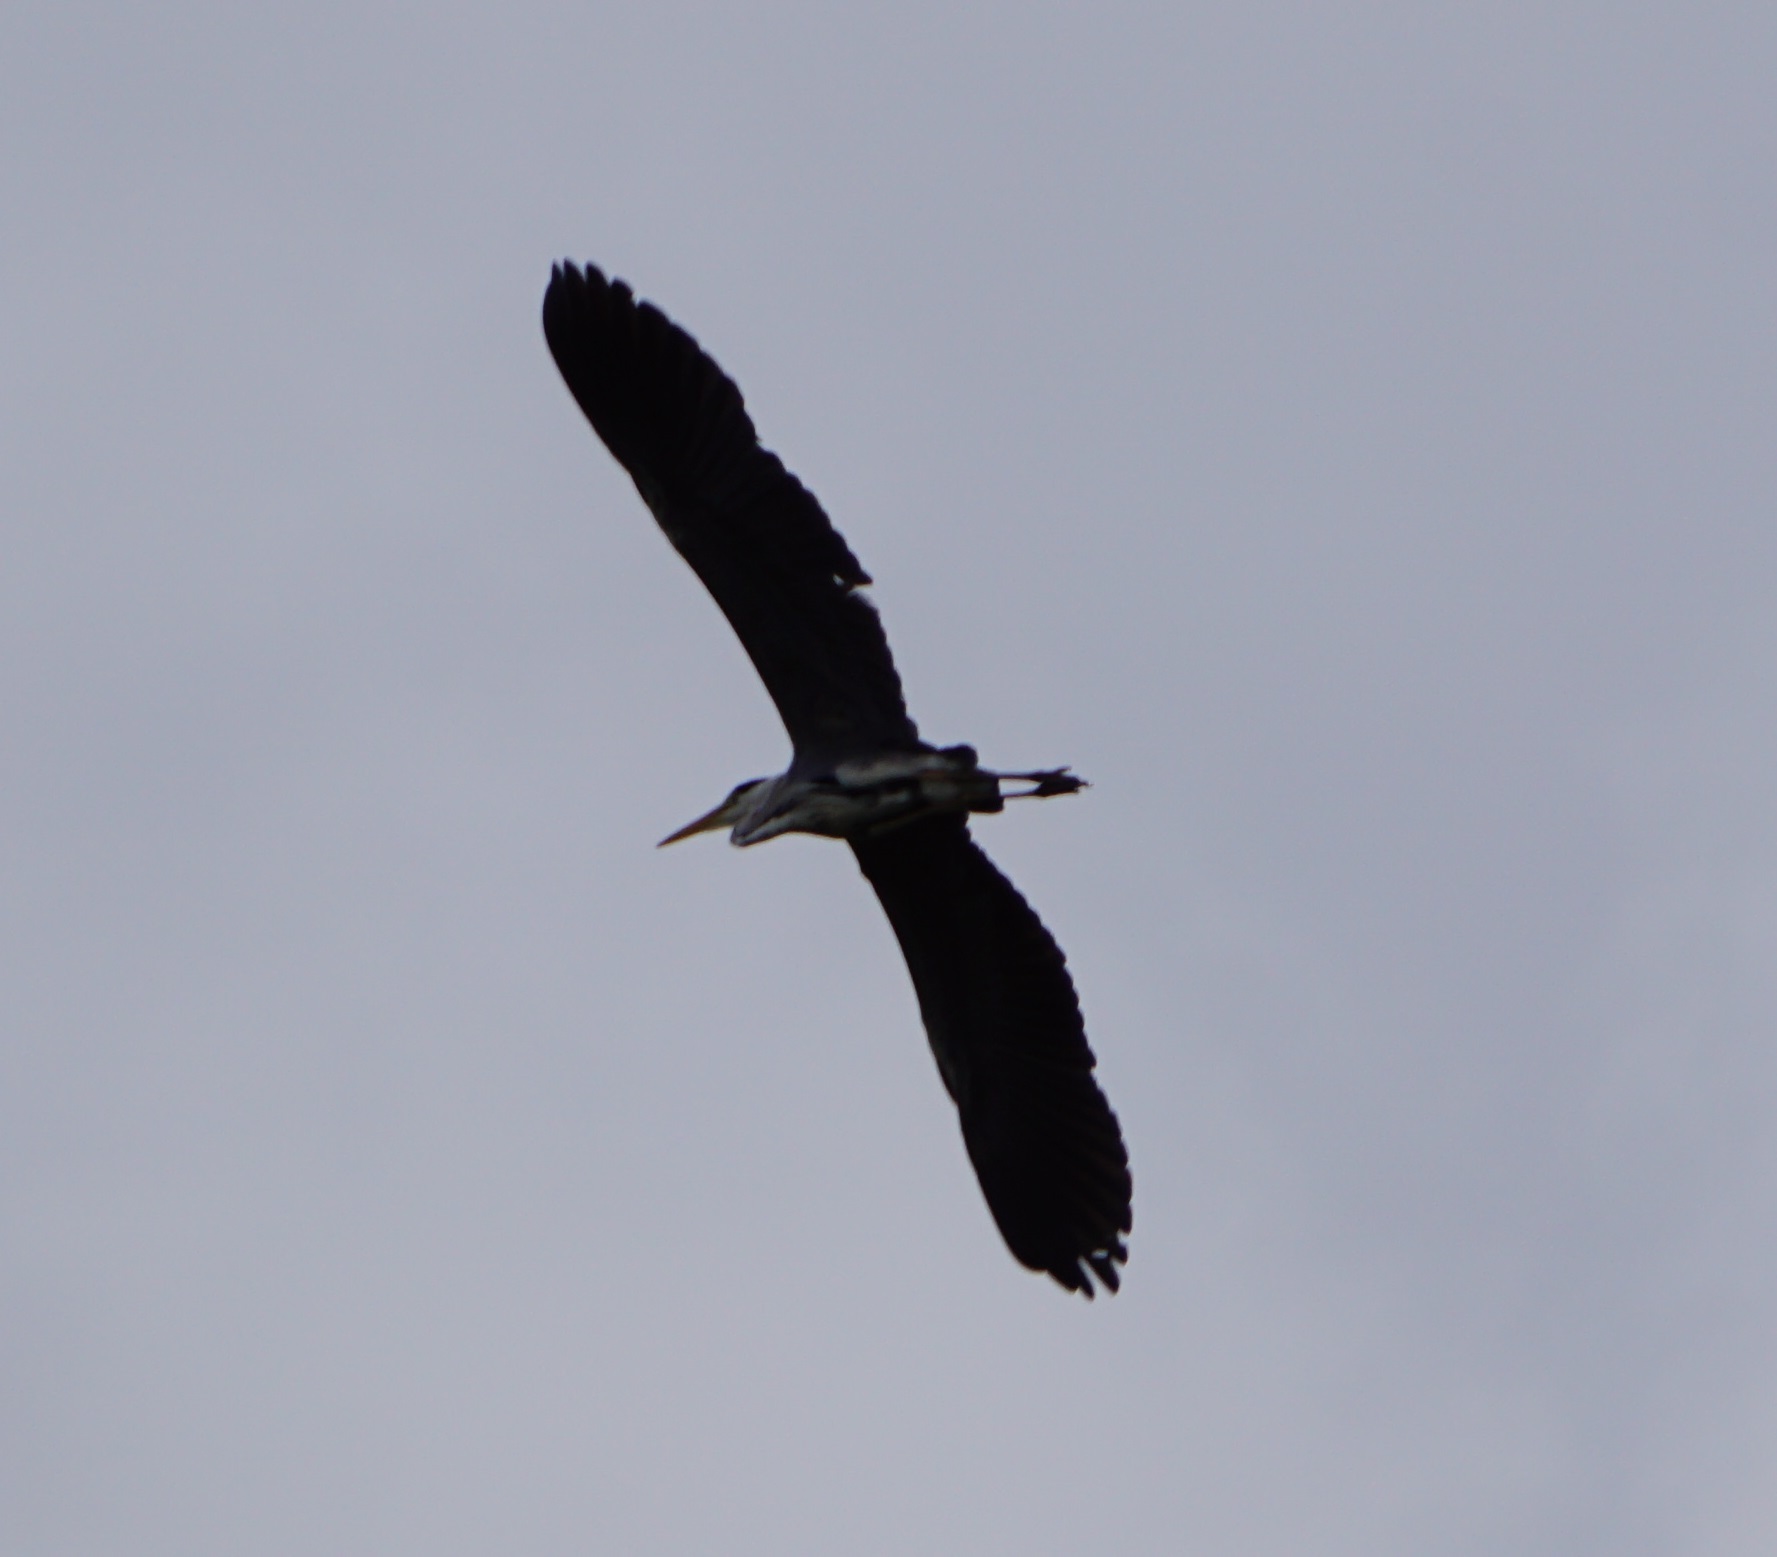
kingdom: Animalia
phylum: Chordata
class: Aves
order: Pelecaniformes
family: Ardeidae
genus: Ardea
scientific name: Ardea cinerea
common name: Grey heron
